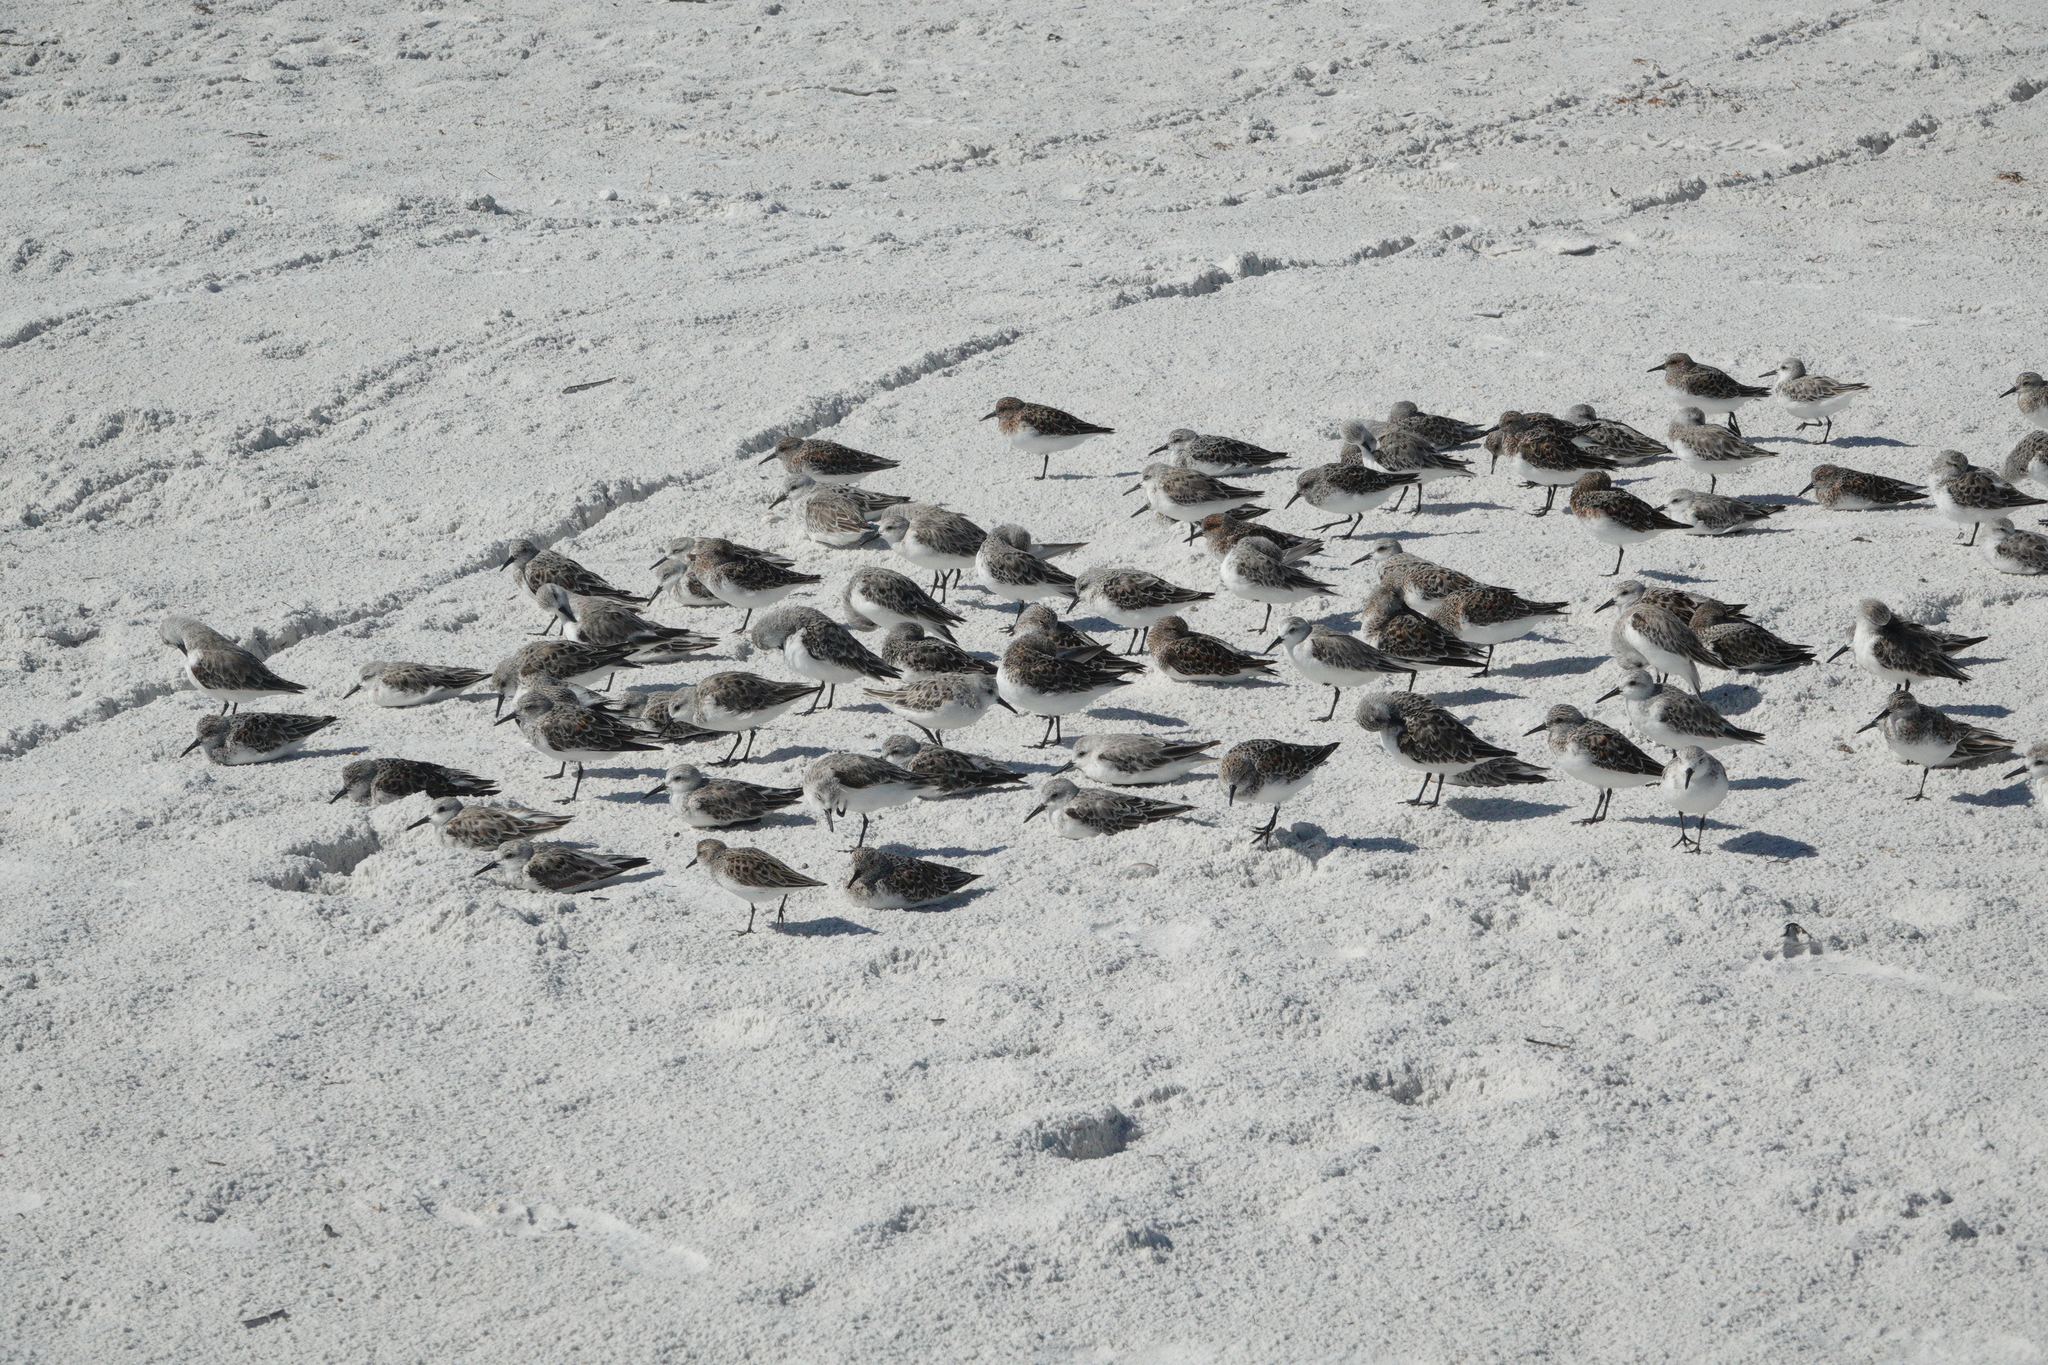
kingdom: Animalia
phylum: Chordata
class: Aves
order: Charadriiformes
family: Scolopacidae
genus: Calidris
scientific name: Calidris alba
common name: Sanderling
